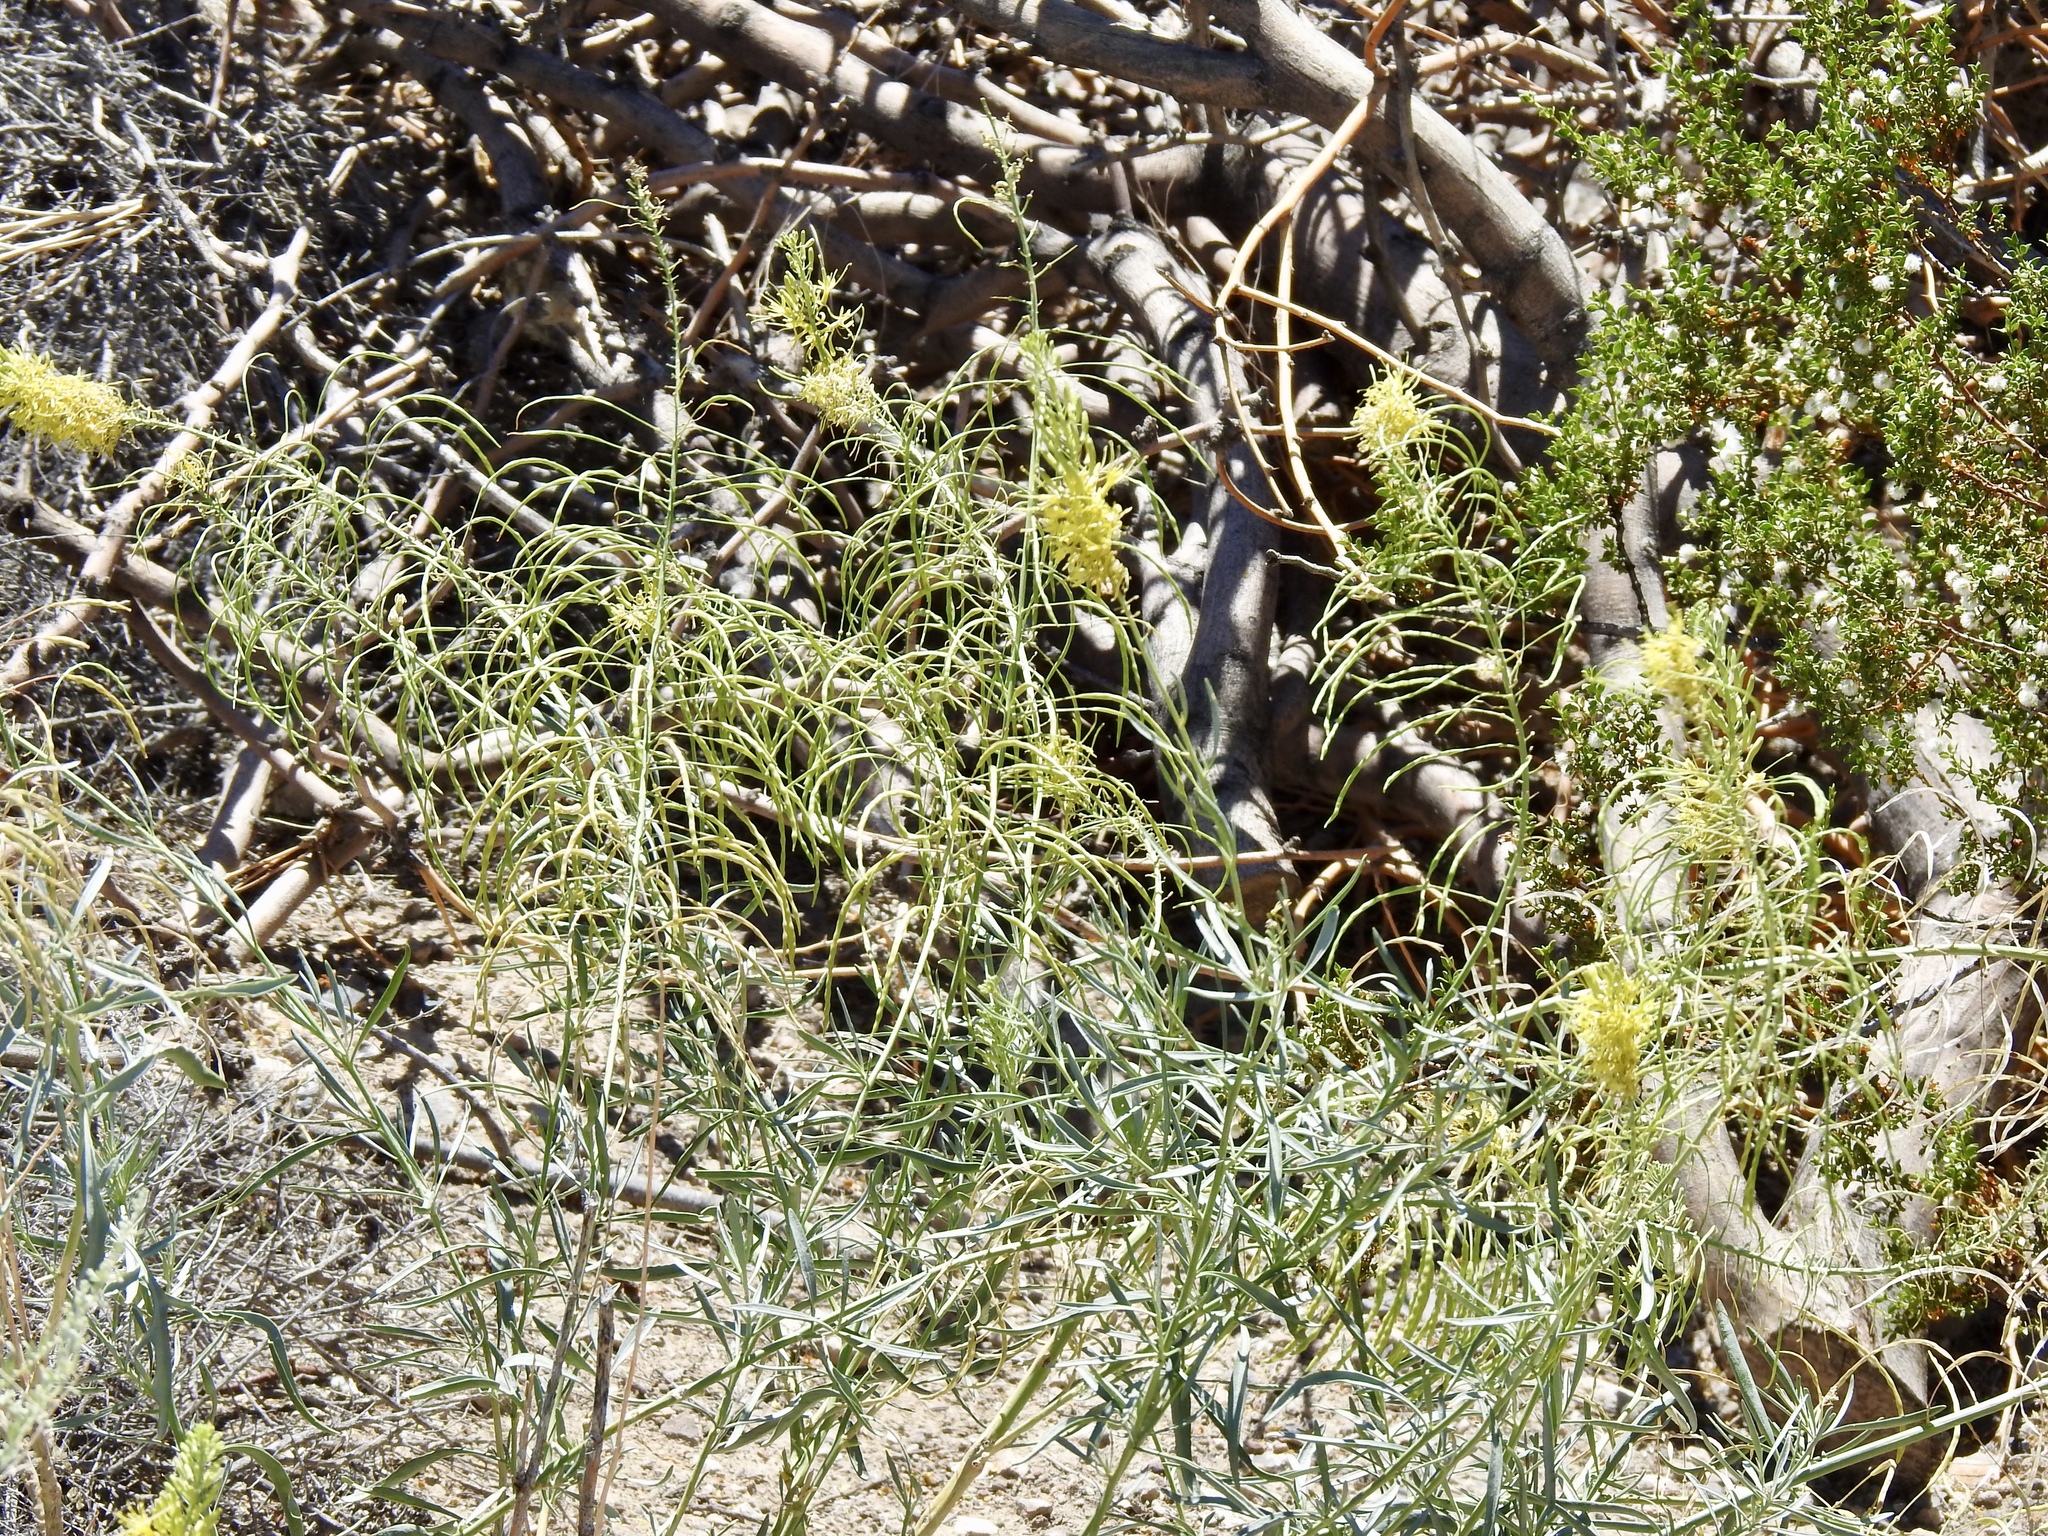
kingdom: Plantae
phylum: Tracheophyta
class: Magnoliopsida
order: Brassicales
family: Brassicaceae
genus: Stanleya
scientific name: Stanleya pinnata
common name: Prince's-plume
